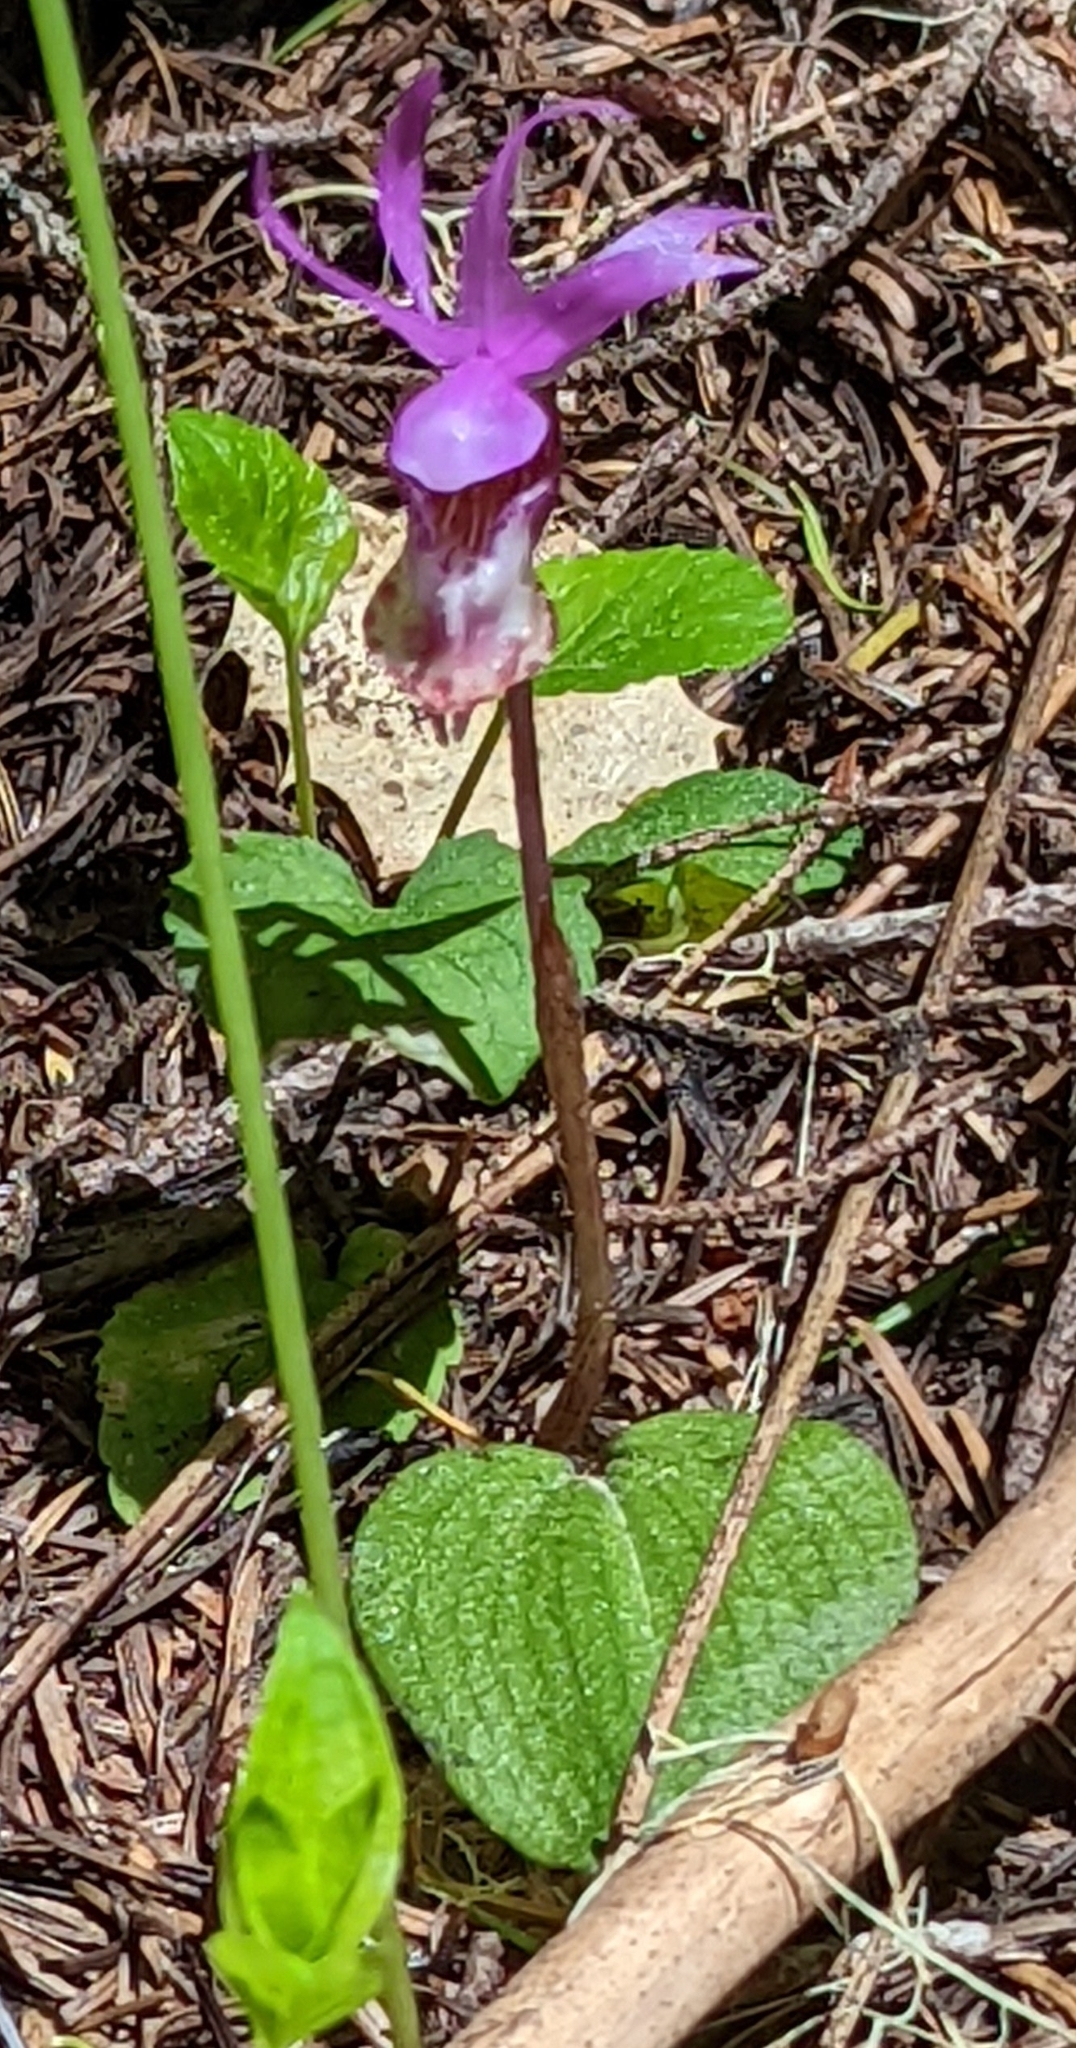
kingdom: Plantae
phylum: Tracheophyta
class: Liliopsida
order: Asparagales
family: Orchidaceae
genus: Calypso
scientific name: Calypso bulbosa
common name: Calypso
